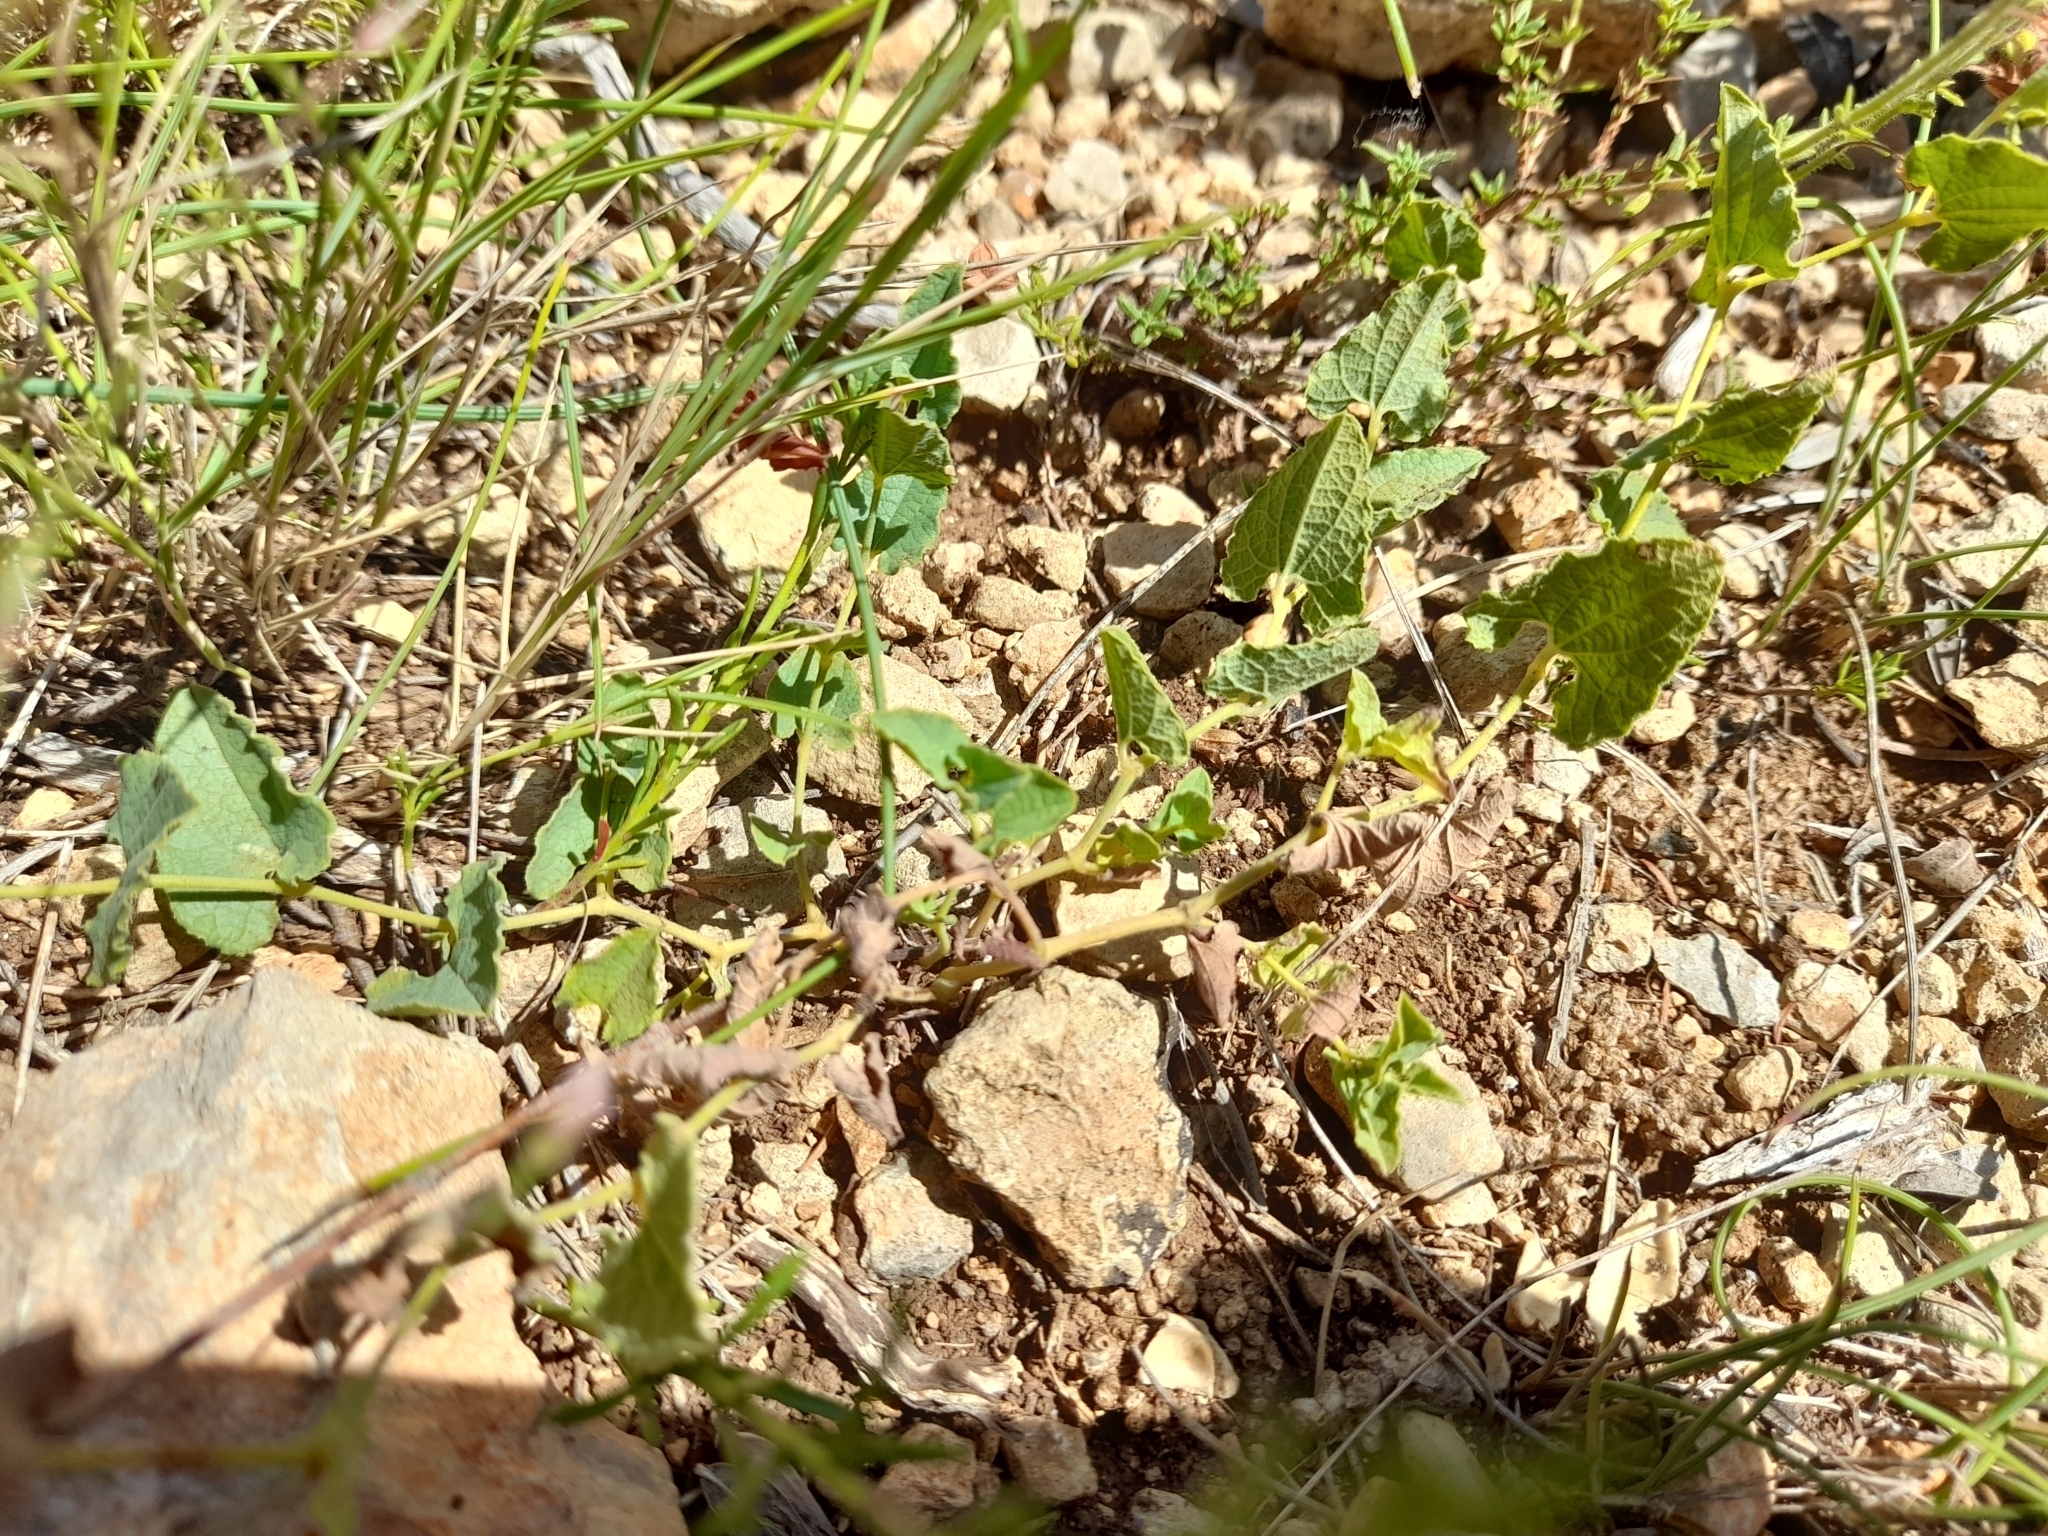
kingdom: Plantae
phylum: Tracheophyta
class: Magnoliopsida
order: Piperales
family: Aristolochiaceae
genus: Aristolochia
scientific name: Aristolochia pistolochia
